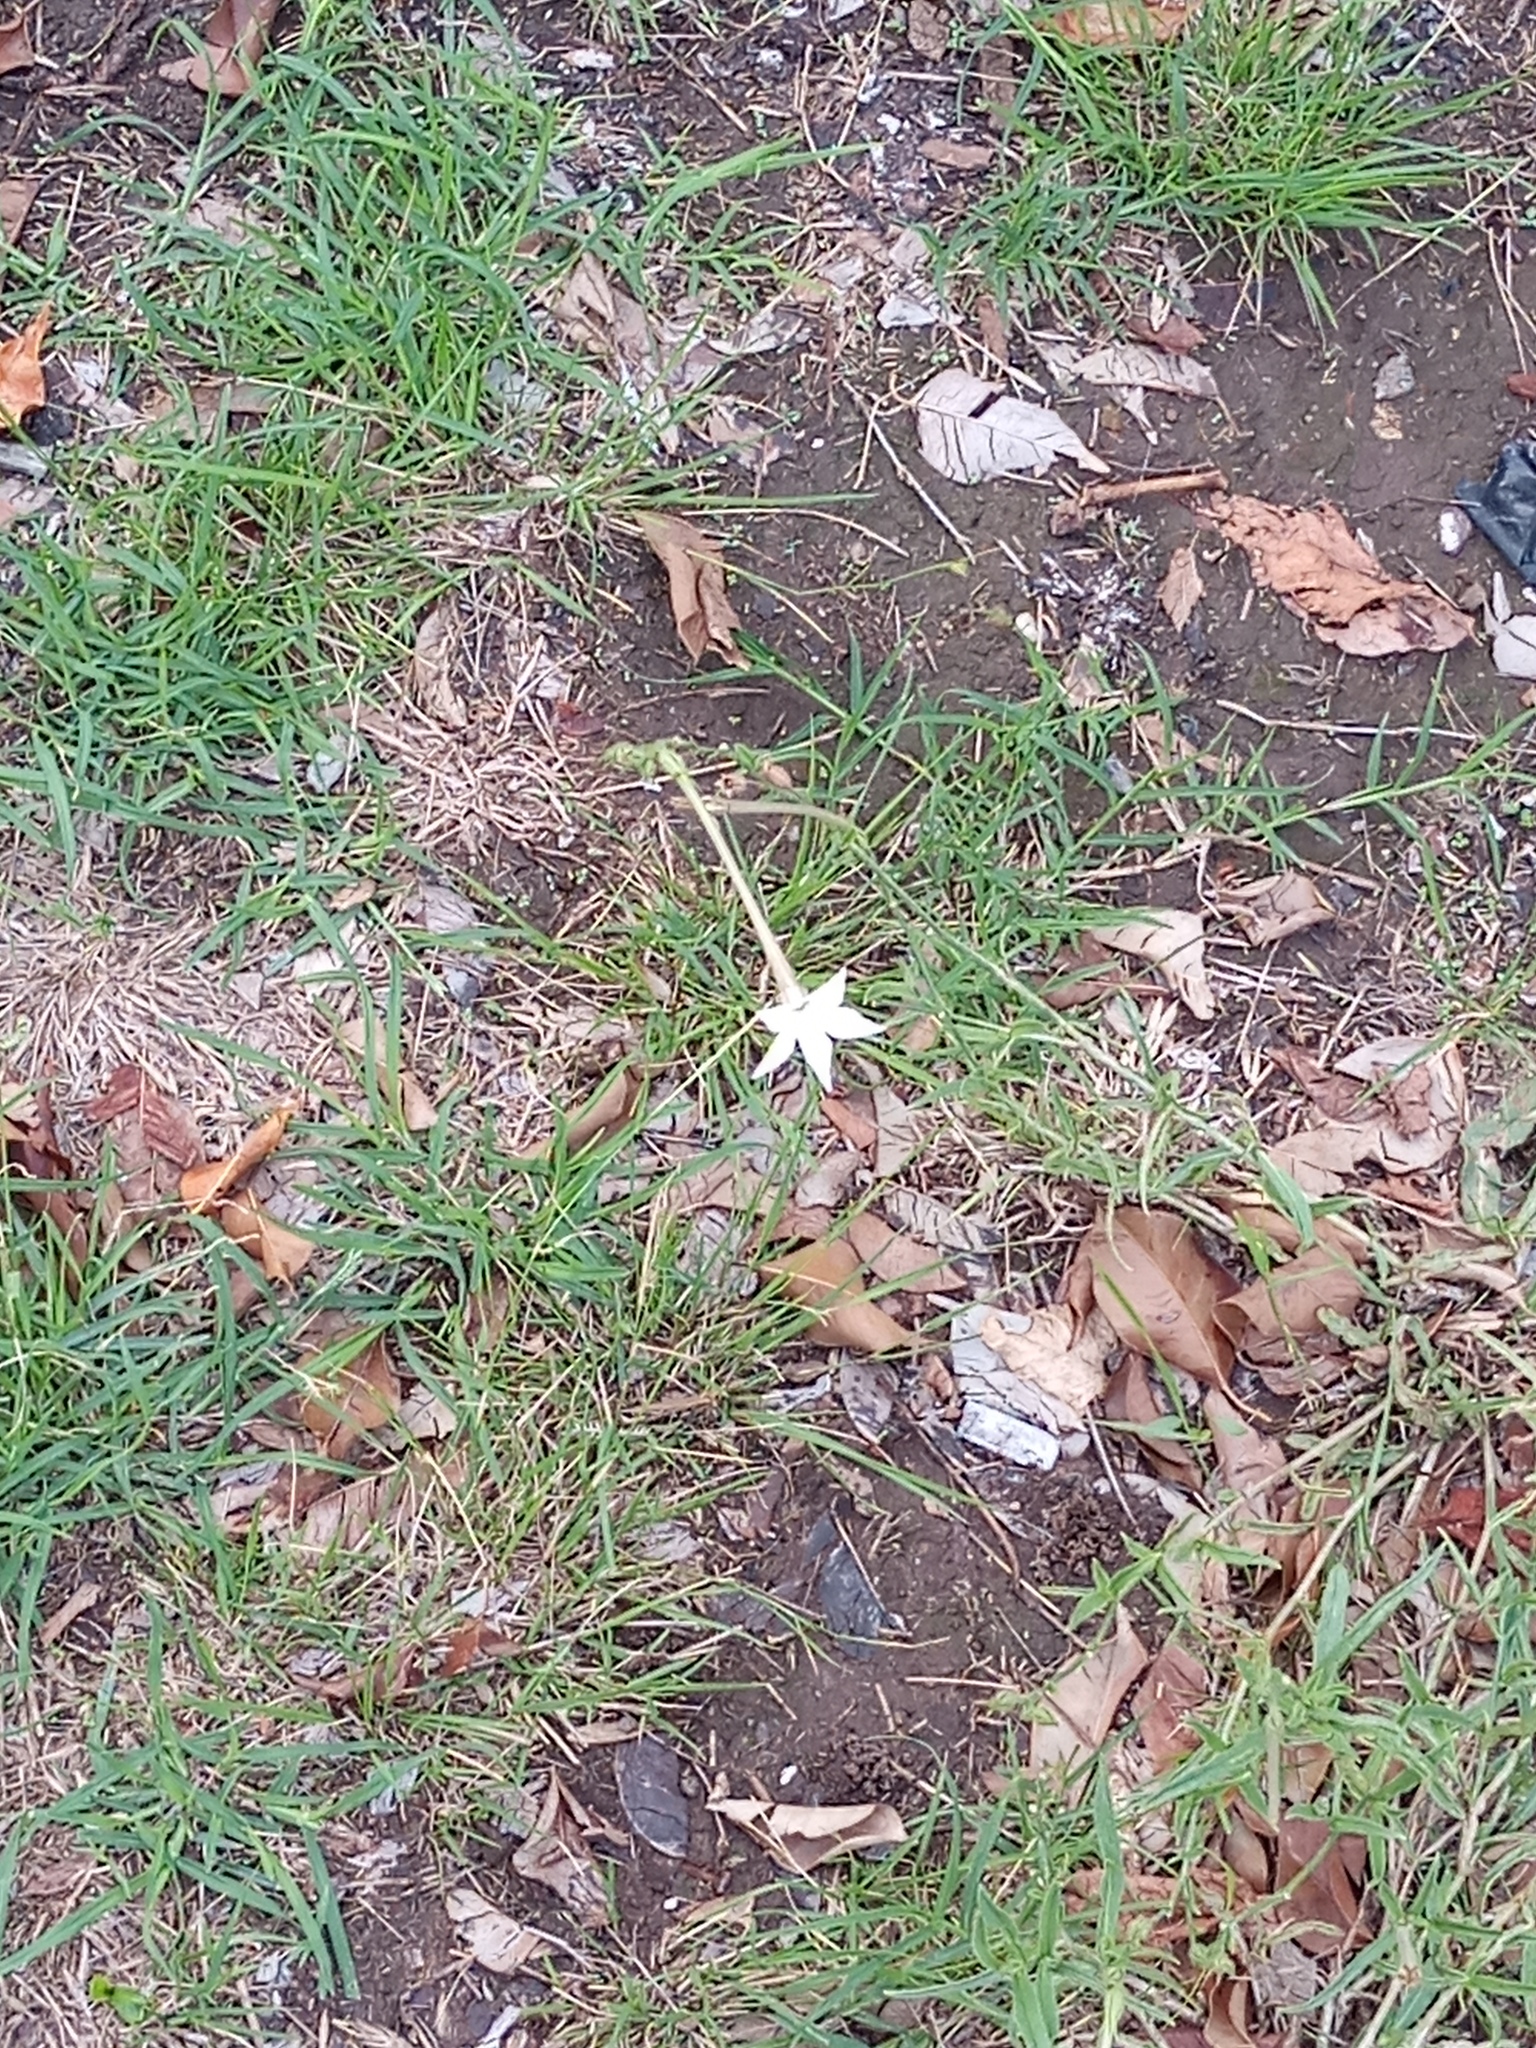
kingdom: Plantae
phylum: Tracheophyta
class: Magnoliopsida
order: Solanales
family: Solanaceae
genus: Nicotiana
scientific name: Nicotiana longiflora
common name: Long-flowered tobacco
